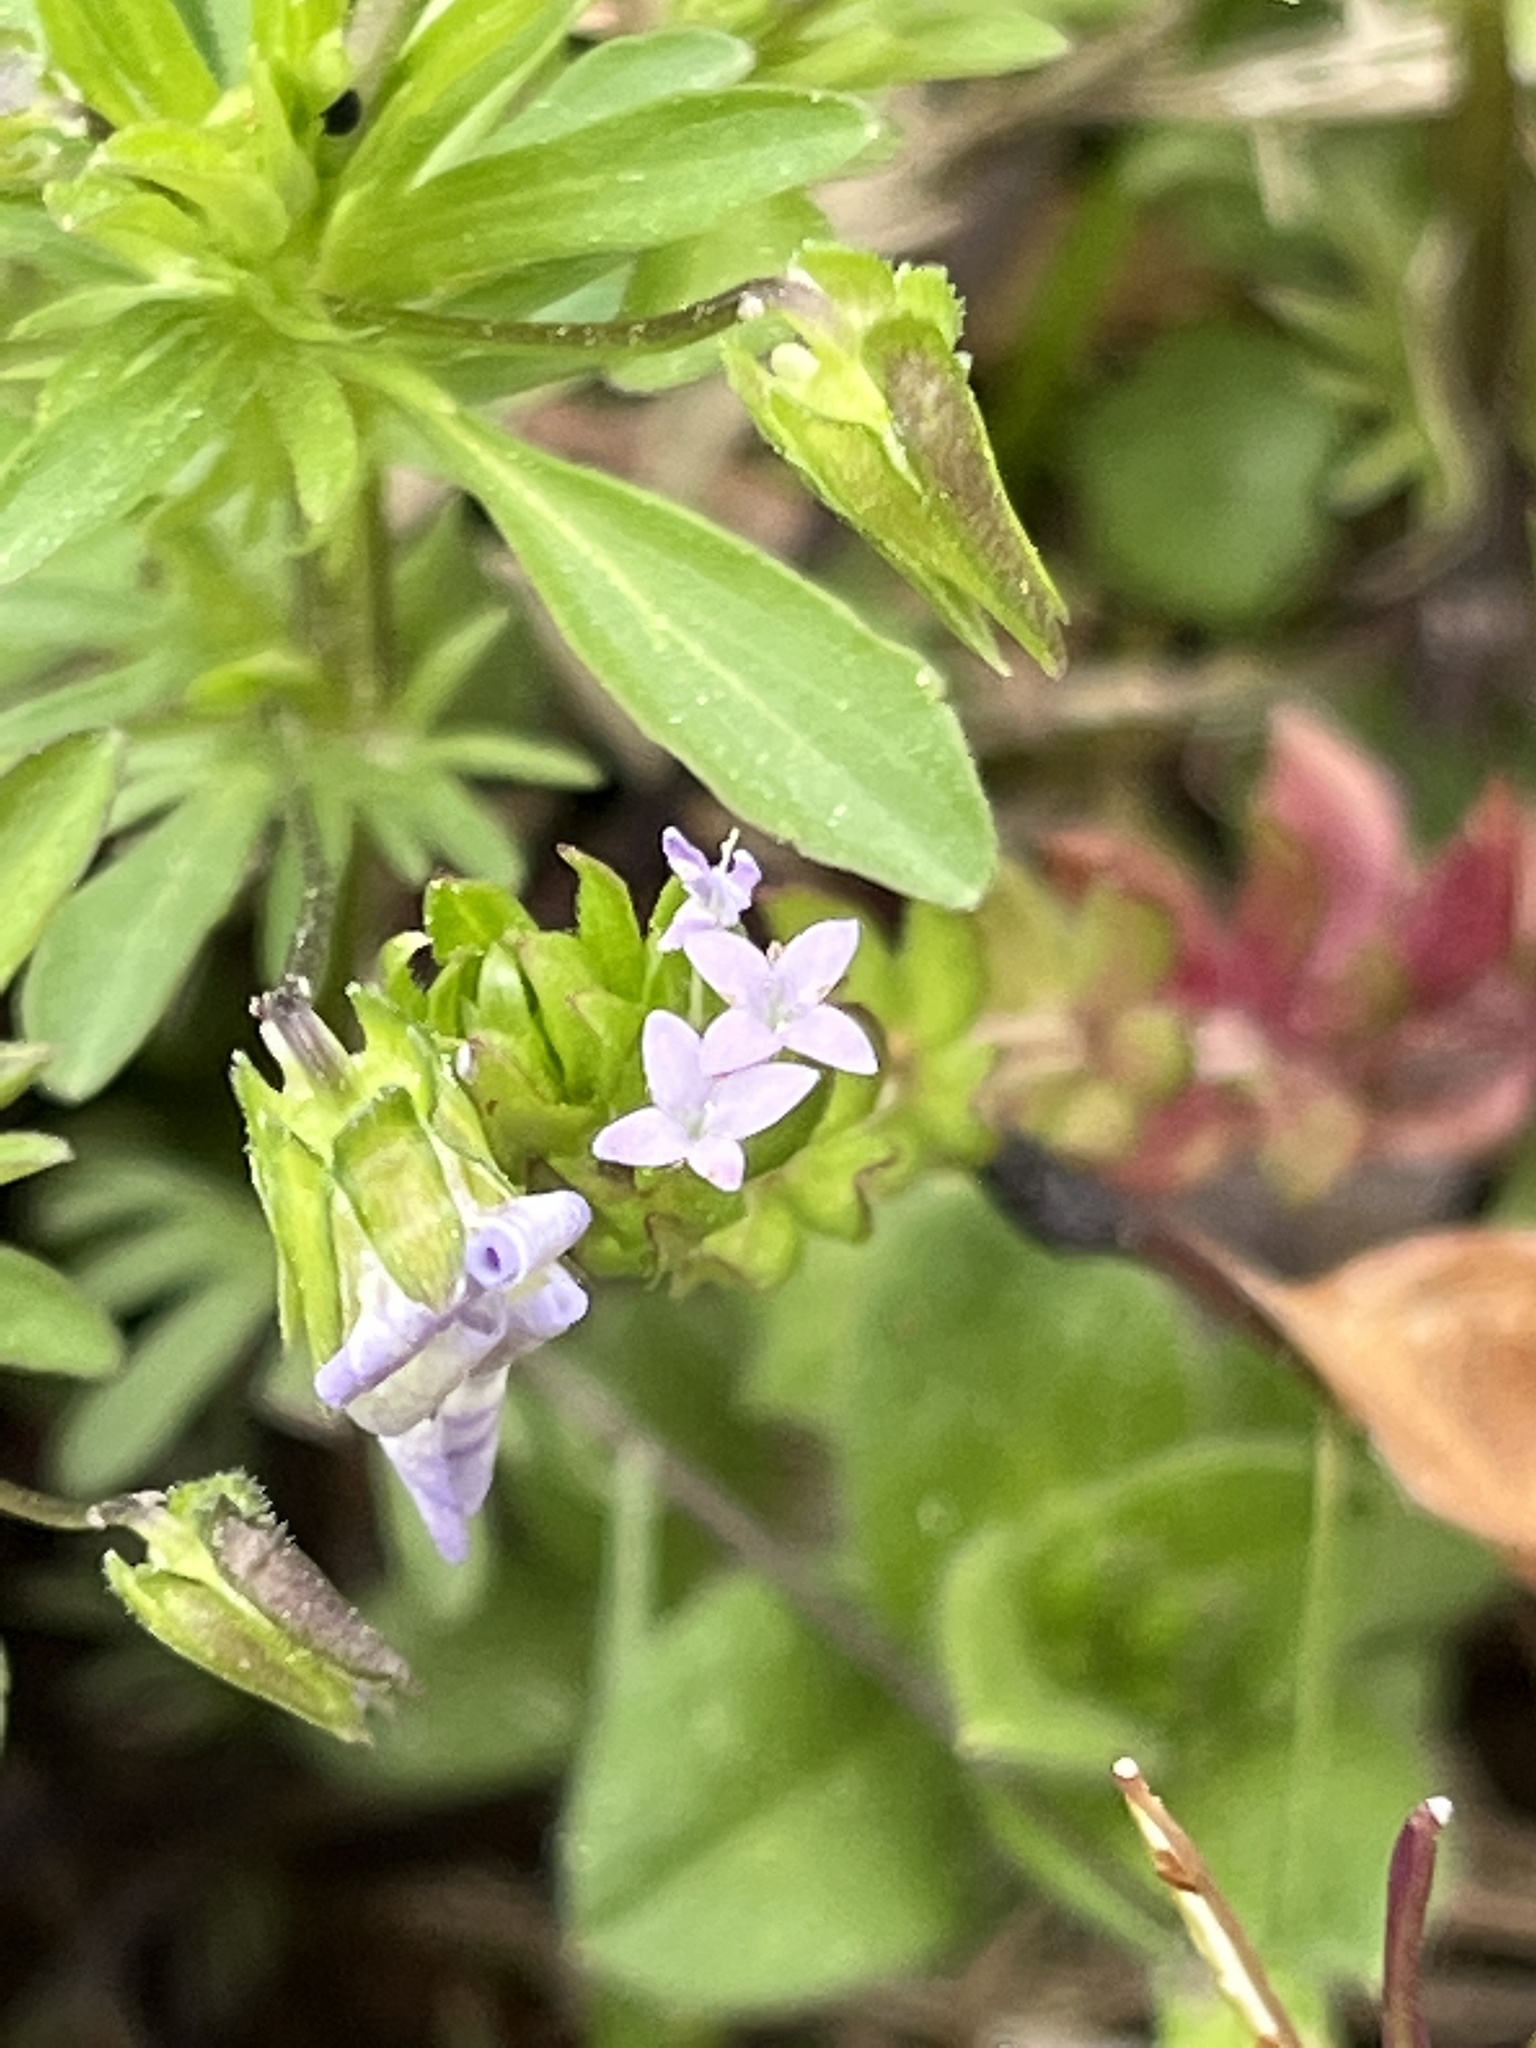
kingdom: Plantae
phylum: Tracheophyta
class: Magnoliopsida
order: Gentianales
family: Rubiaceae
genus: Sherardia
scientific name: Sherardia arvensis
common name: Field madder
